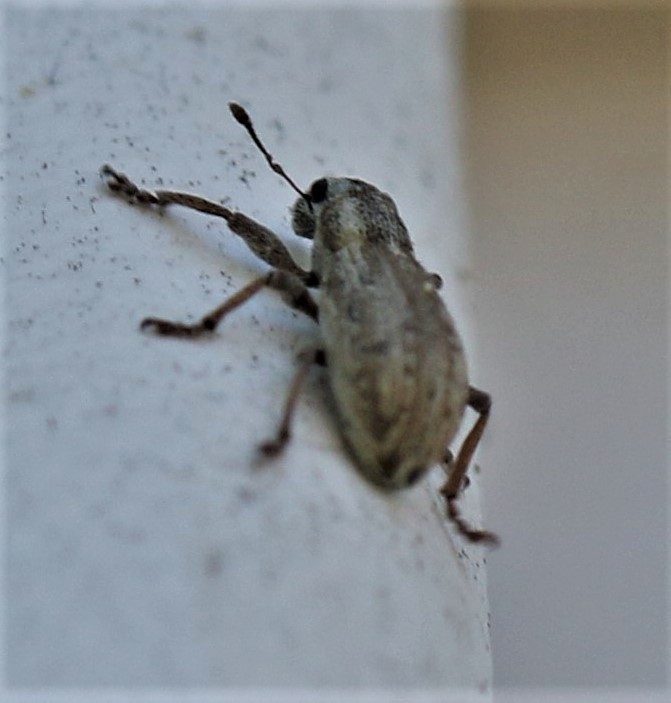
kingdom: Animalia
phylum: Arthropoda
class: Insecta
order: Coleoptera
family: Curculionidae
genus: Sitona
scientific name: Sitona lineellus
